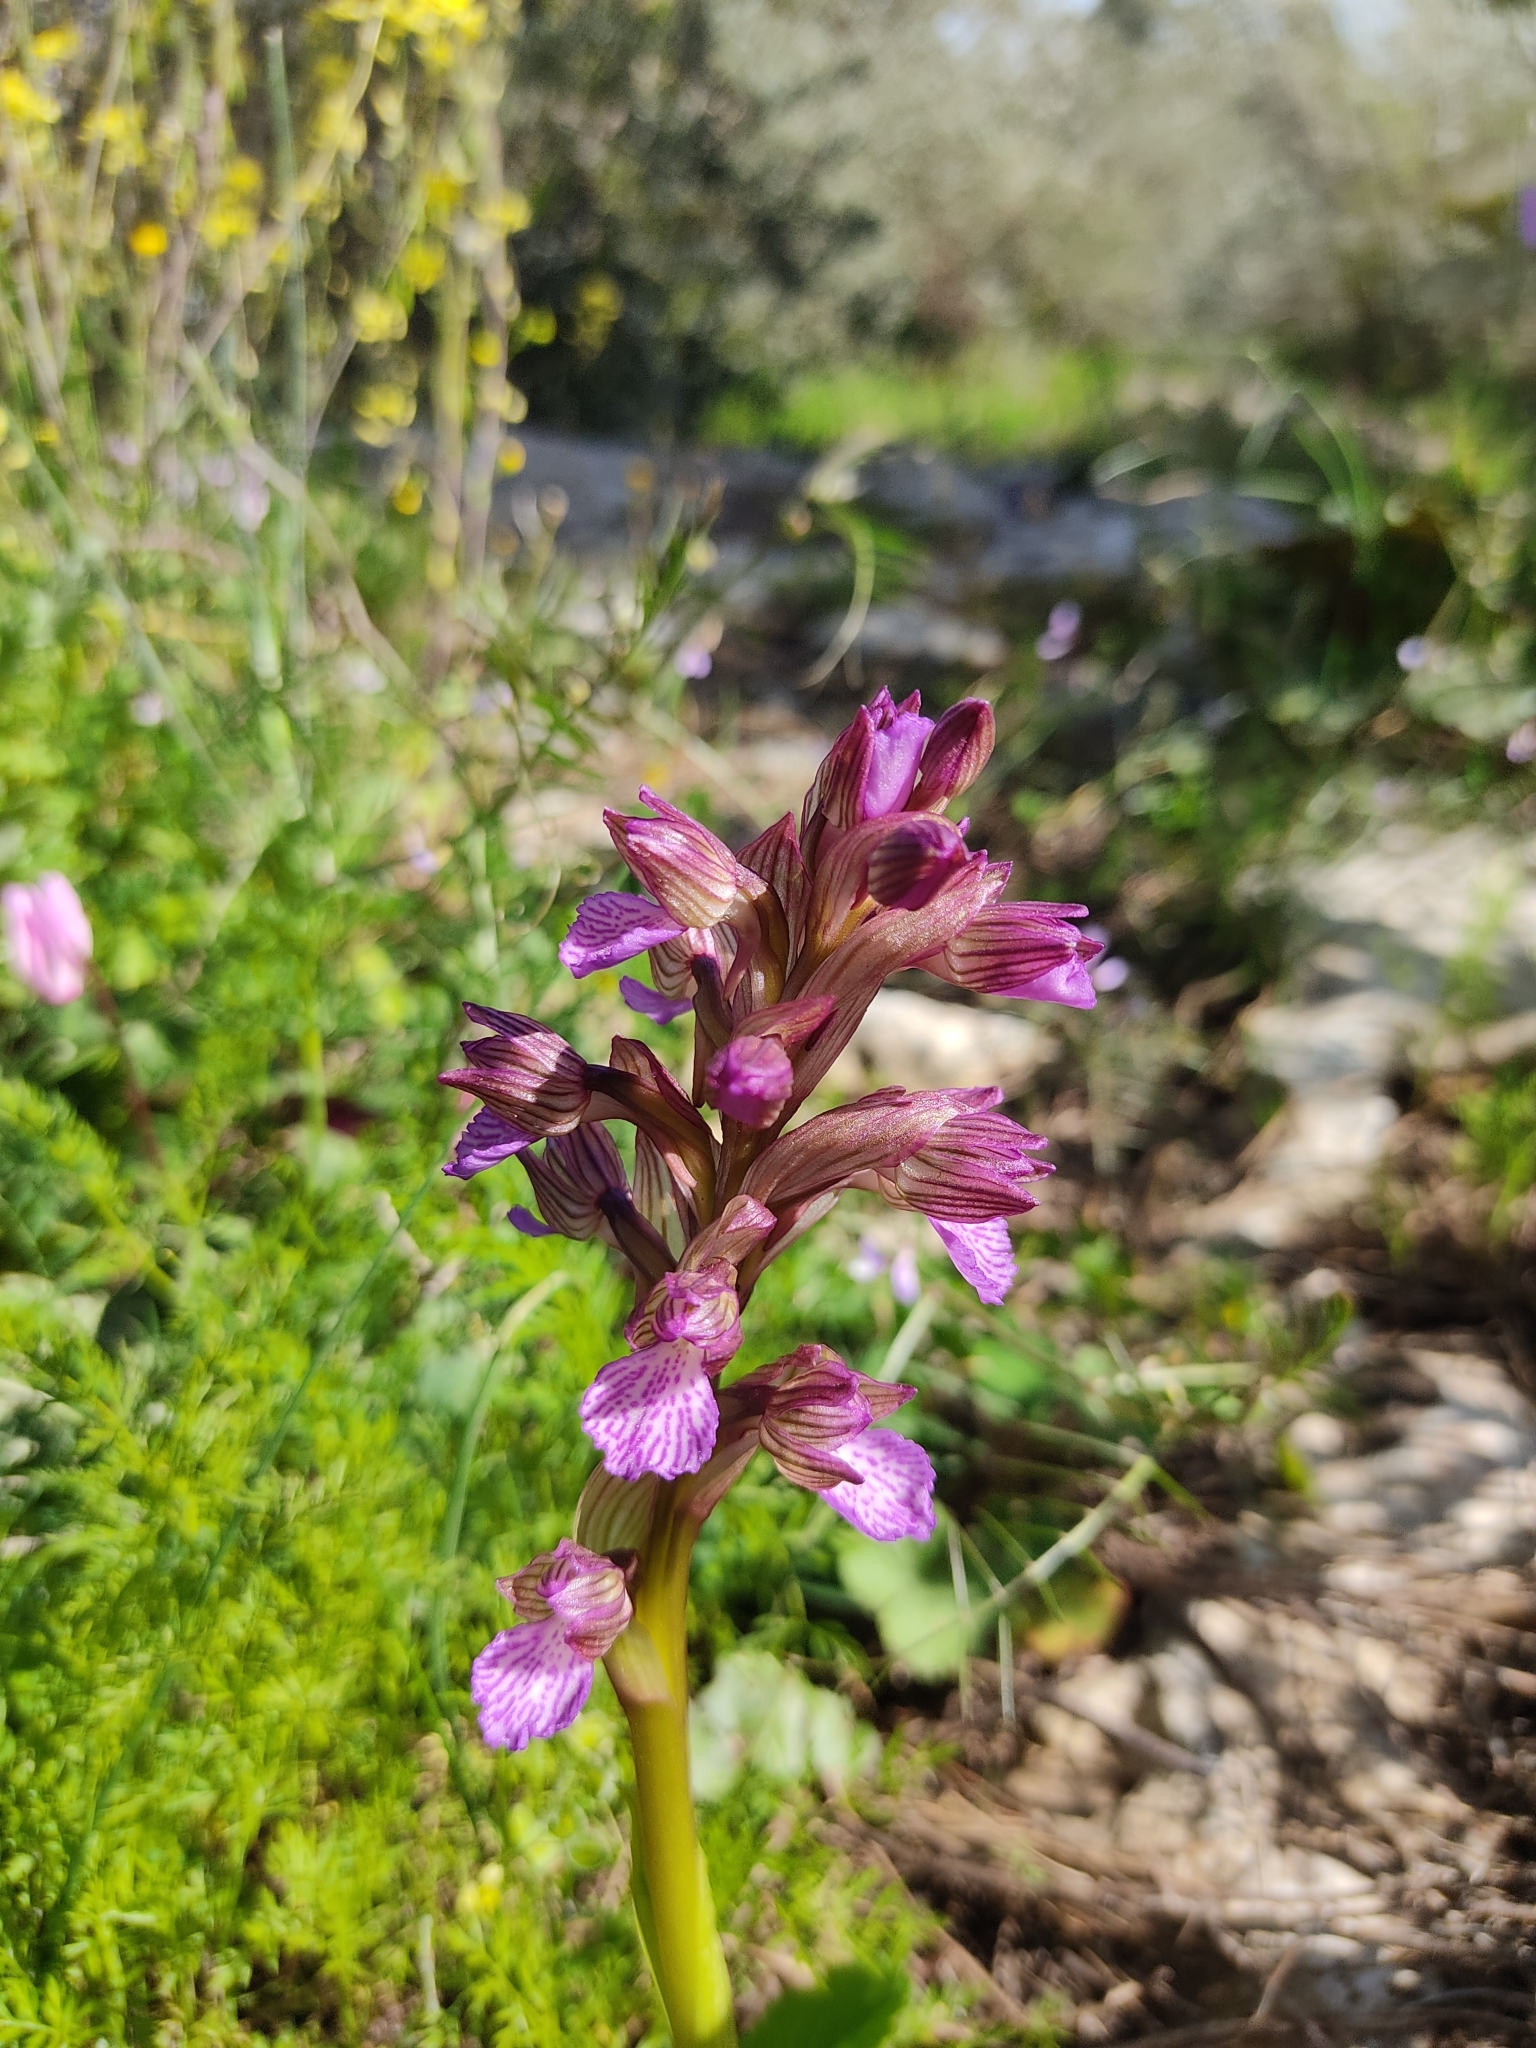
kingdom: Plantae
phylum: Tracheophyta
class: Liliopsida
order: Asparagales
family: Orchidaceae
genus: Anacamptis
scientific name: Anacamptis papilionacea
